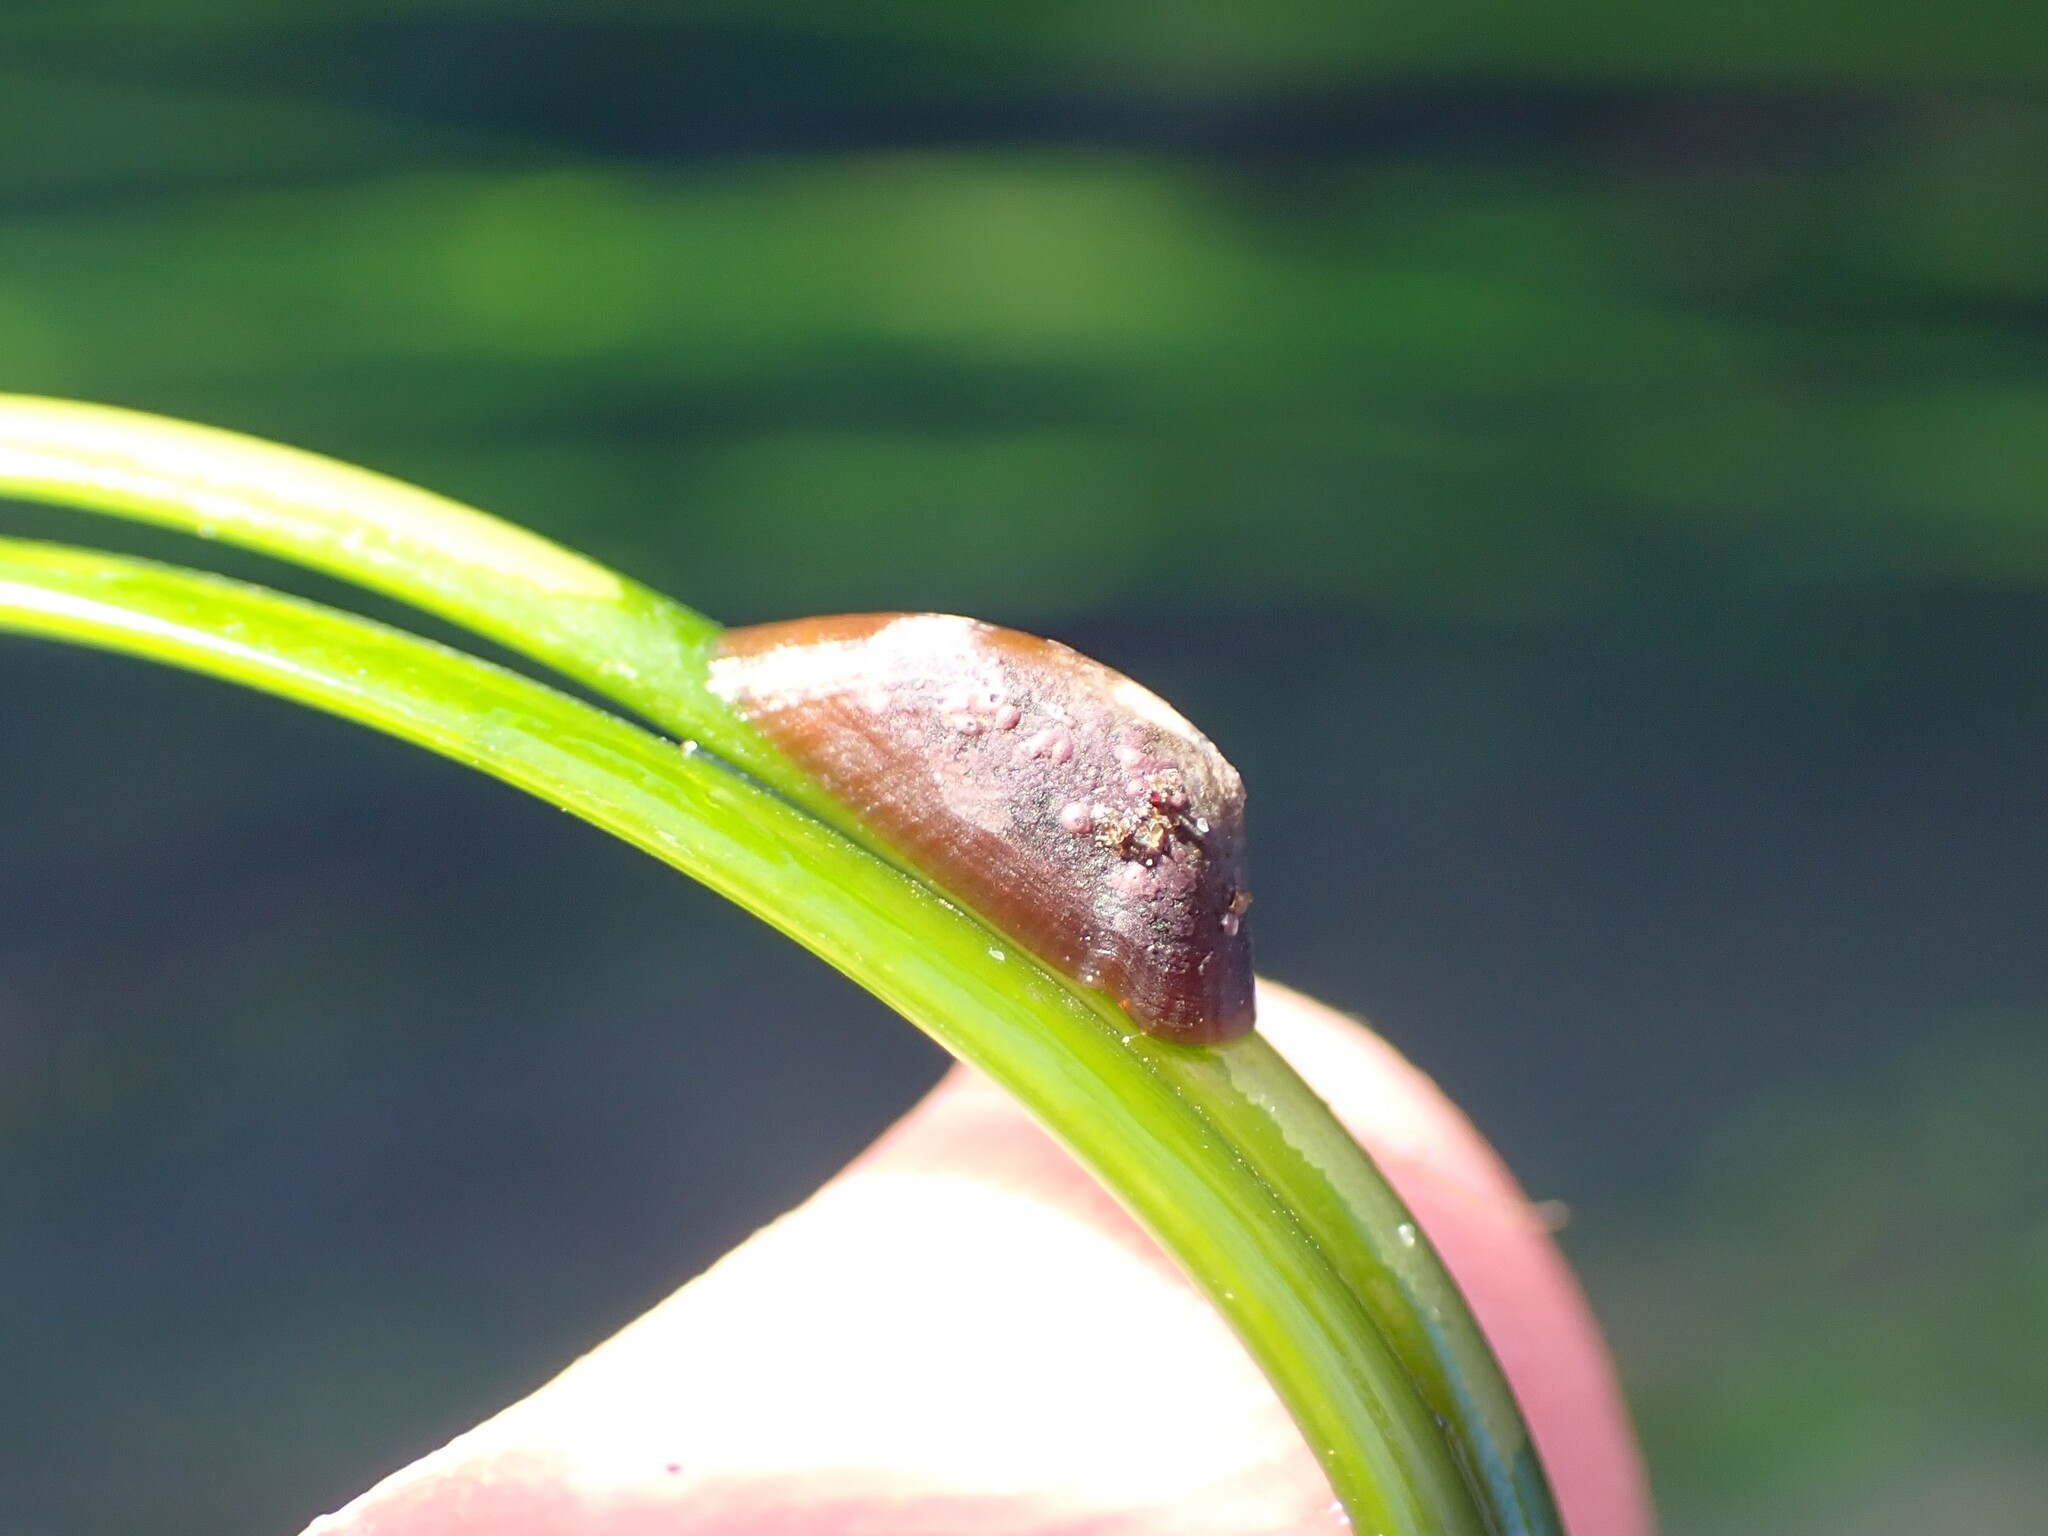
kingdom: Animalia
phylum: Mollusca
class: Gastropoda
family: Lottiidae
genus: Tectura
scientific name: Tectura paleacea
